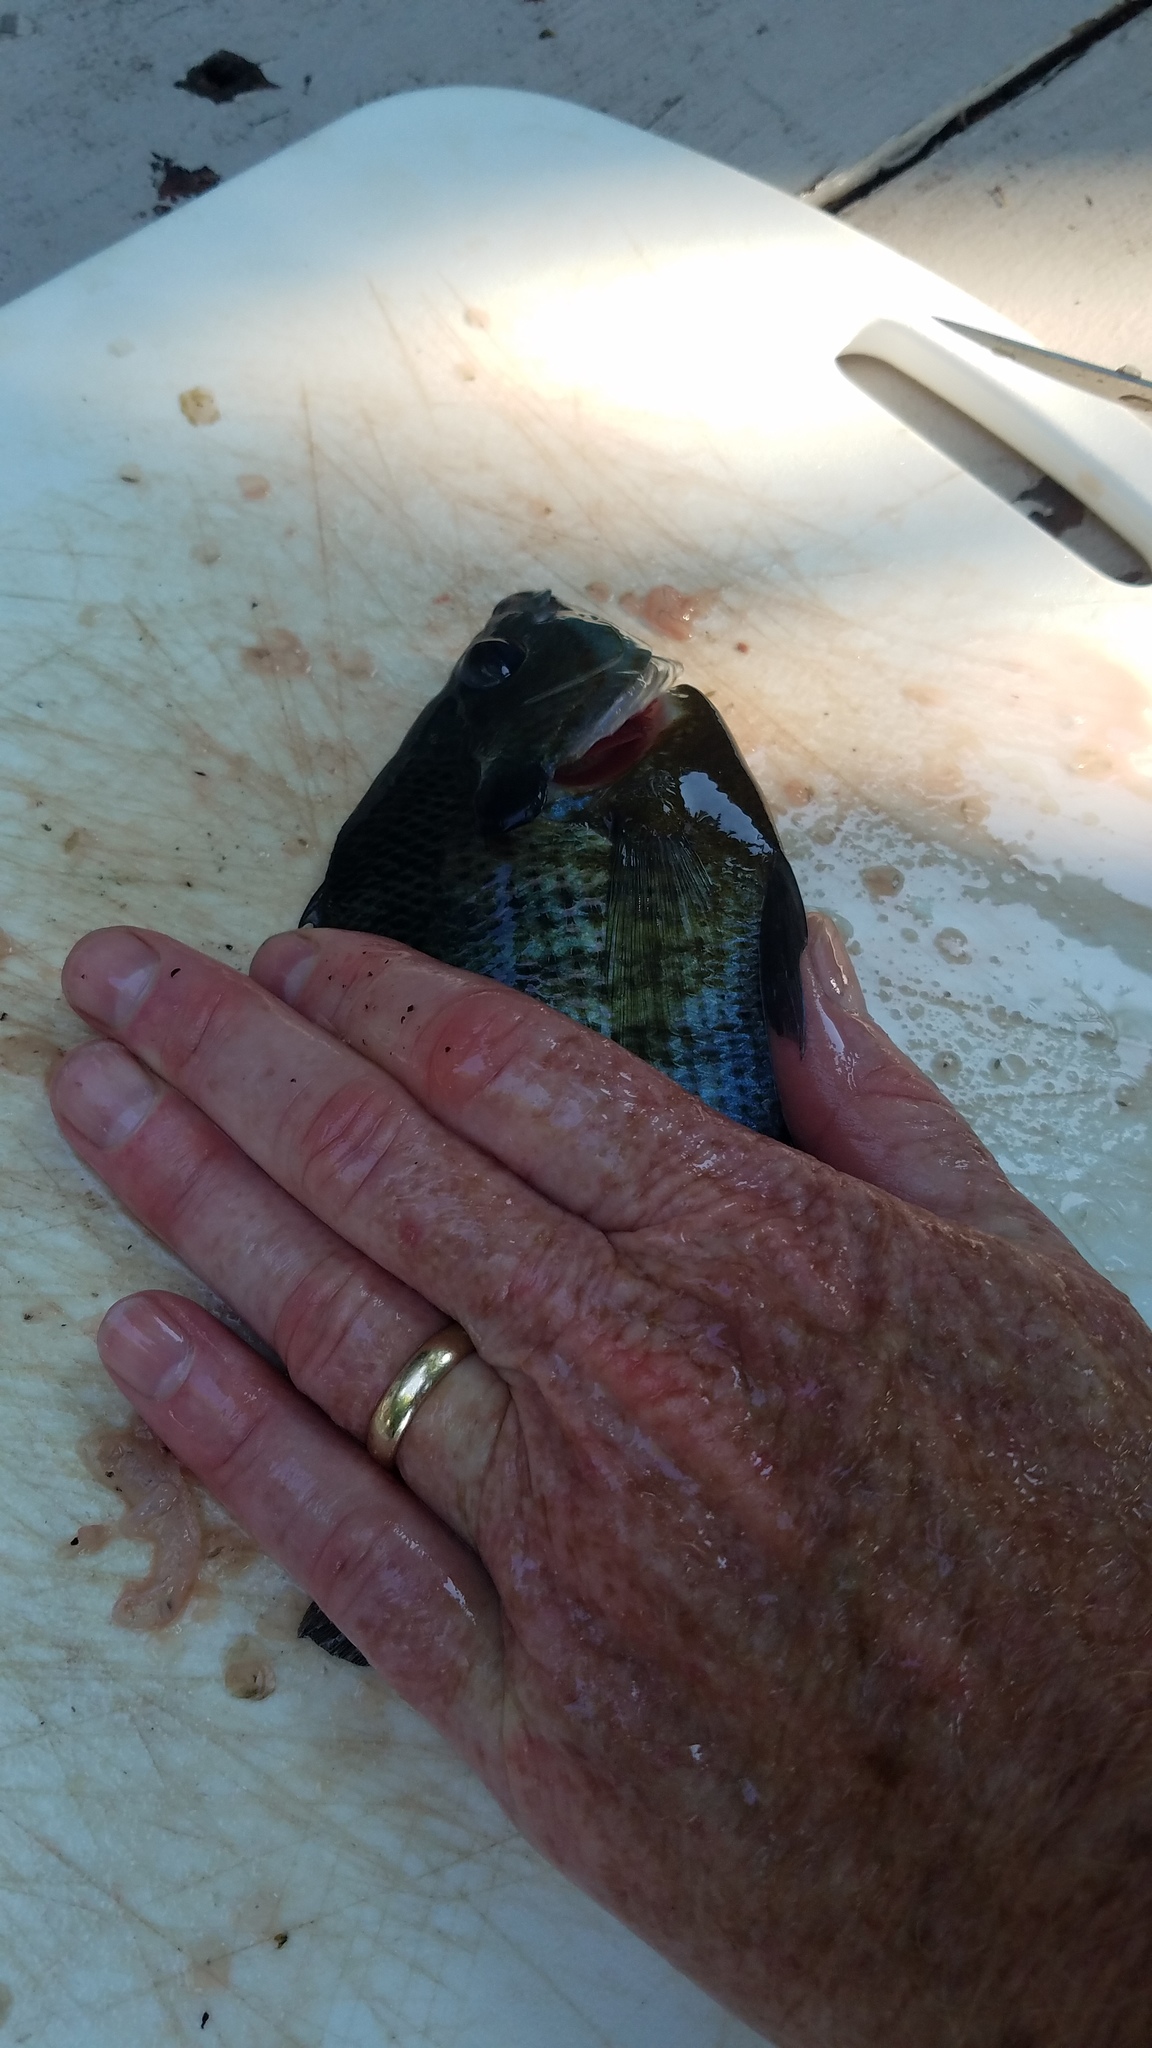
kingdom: Animalia
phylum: Chordata
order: Perciformes
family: Centrarchidae
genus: Lepomis
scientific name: Lepomis macrochirus
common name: Bluegill
